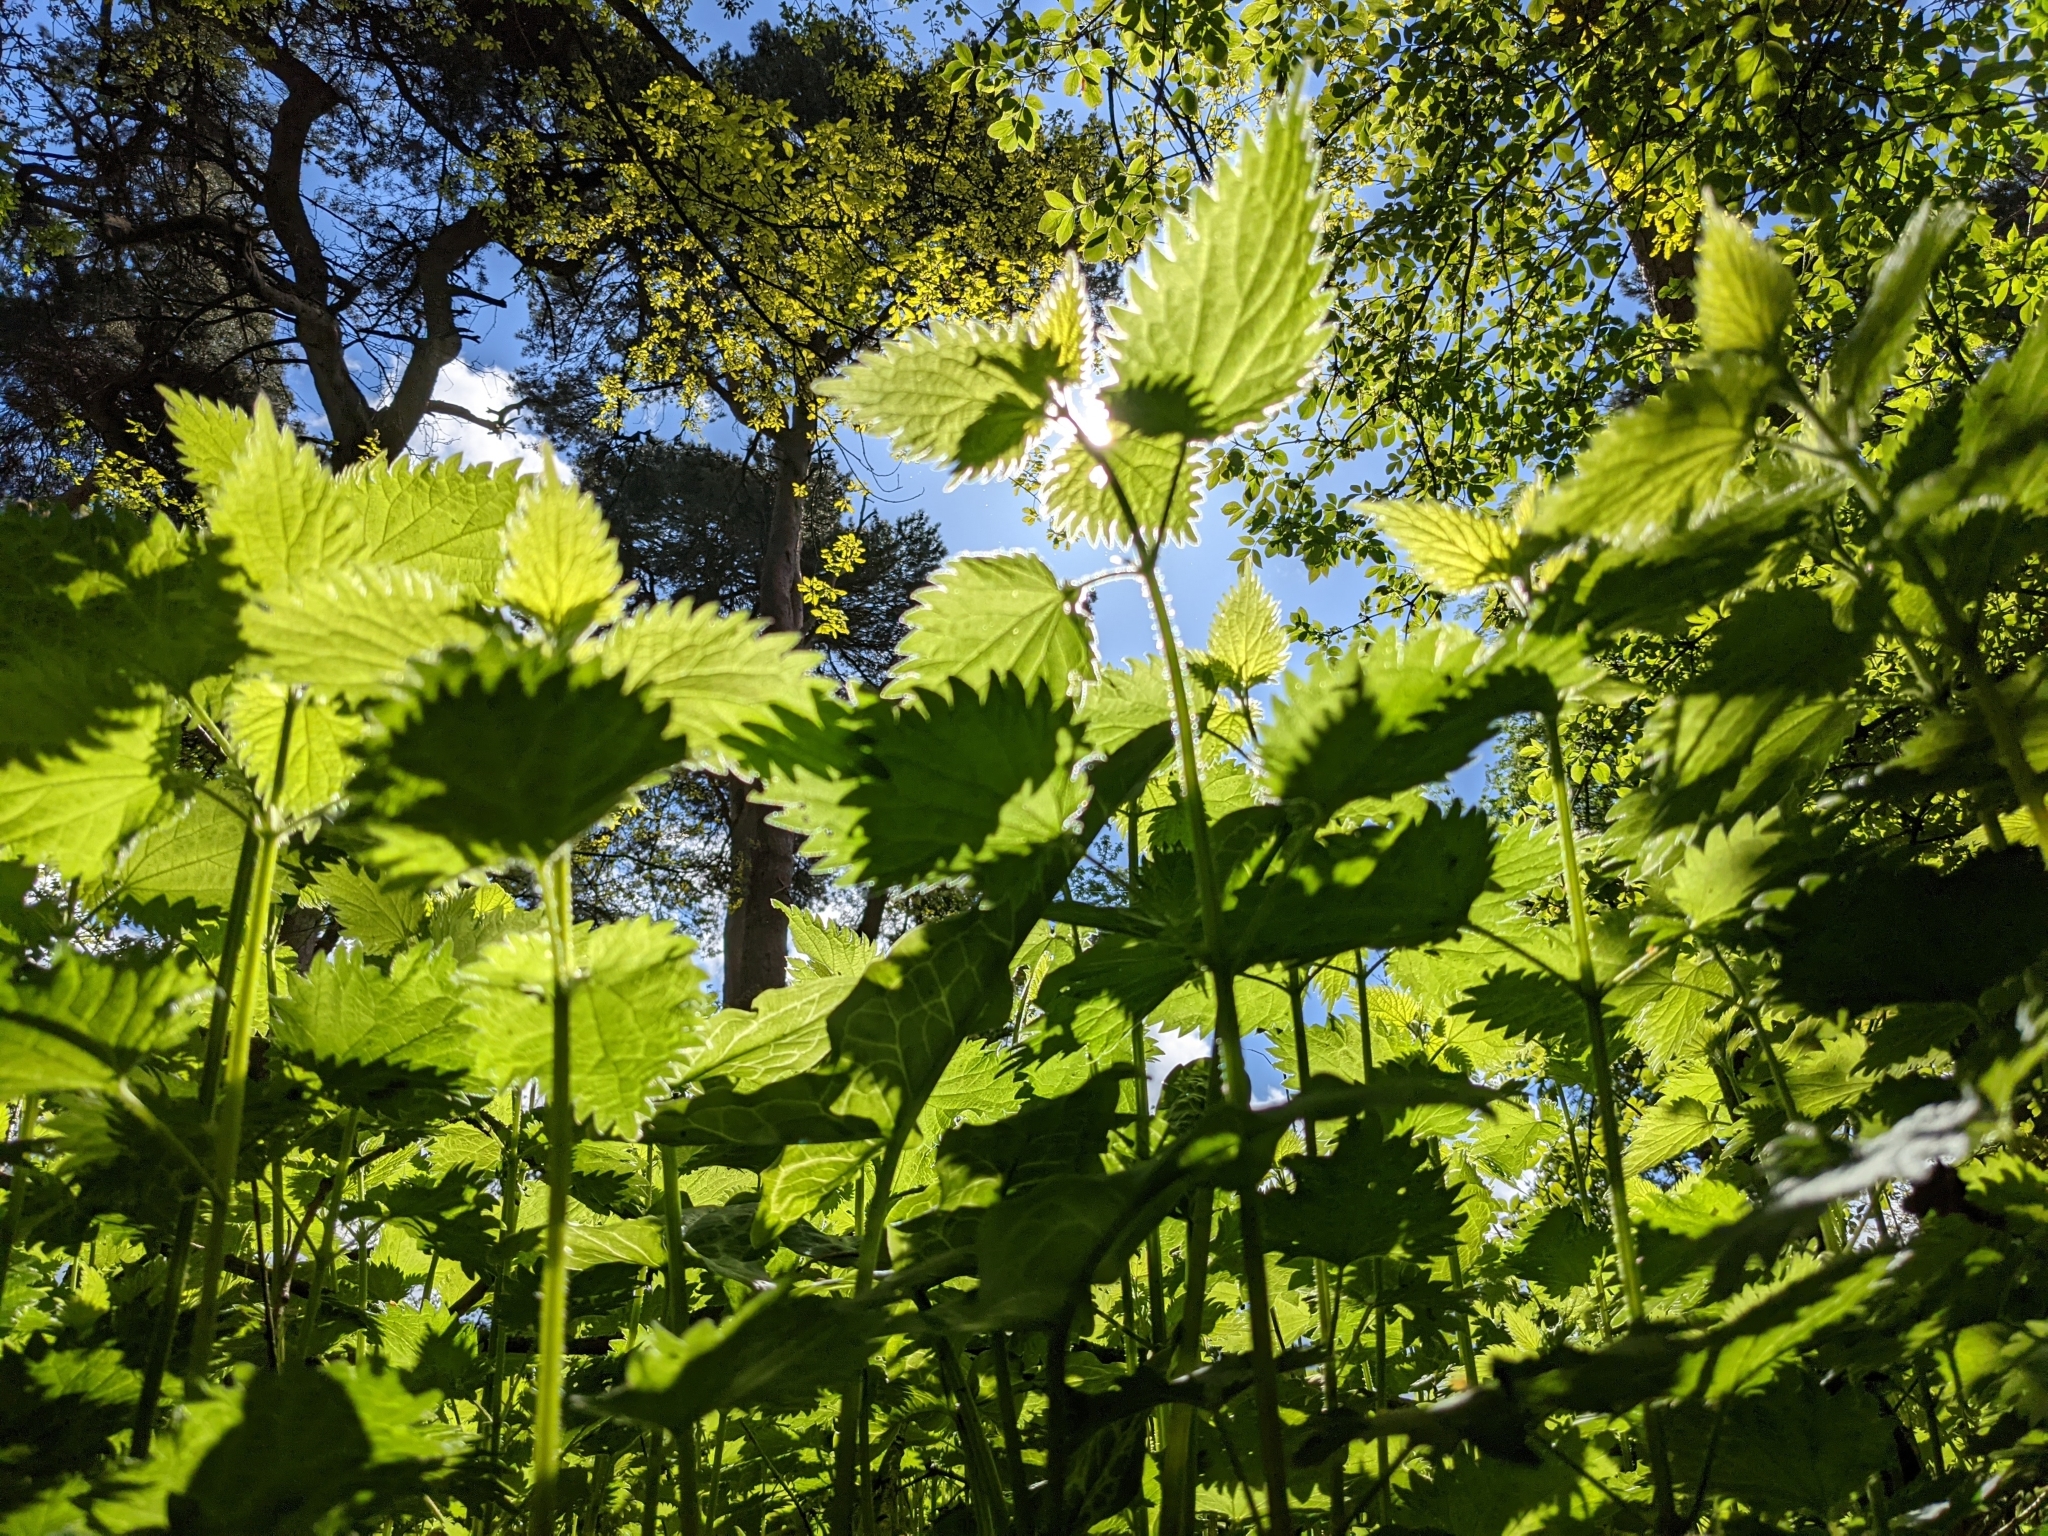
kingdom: Plantae
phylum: Tracheophyta
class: Magnoliopsida
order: Rosales
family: Urticaceae
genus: Urtica
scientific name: Urtica dioica
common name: Common nettle
